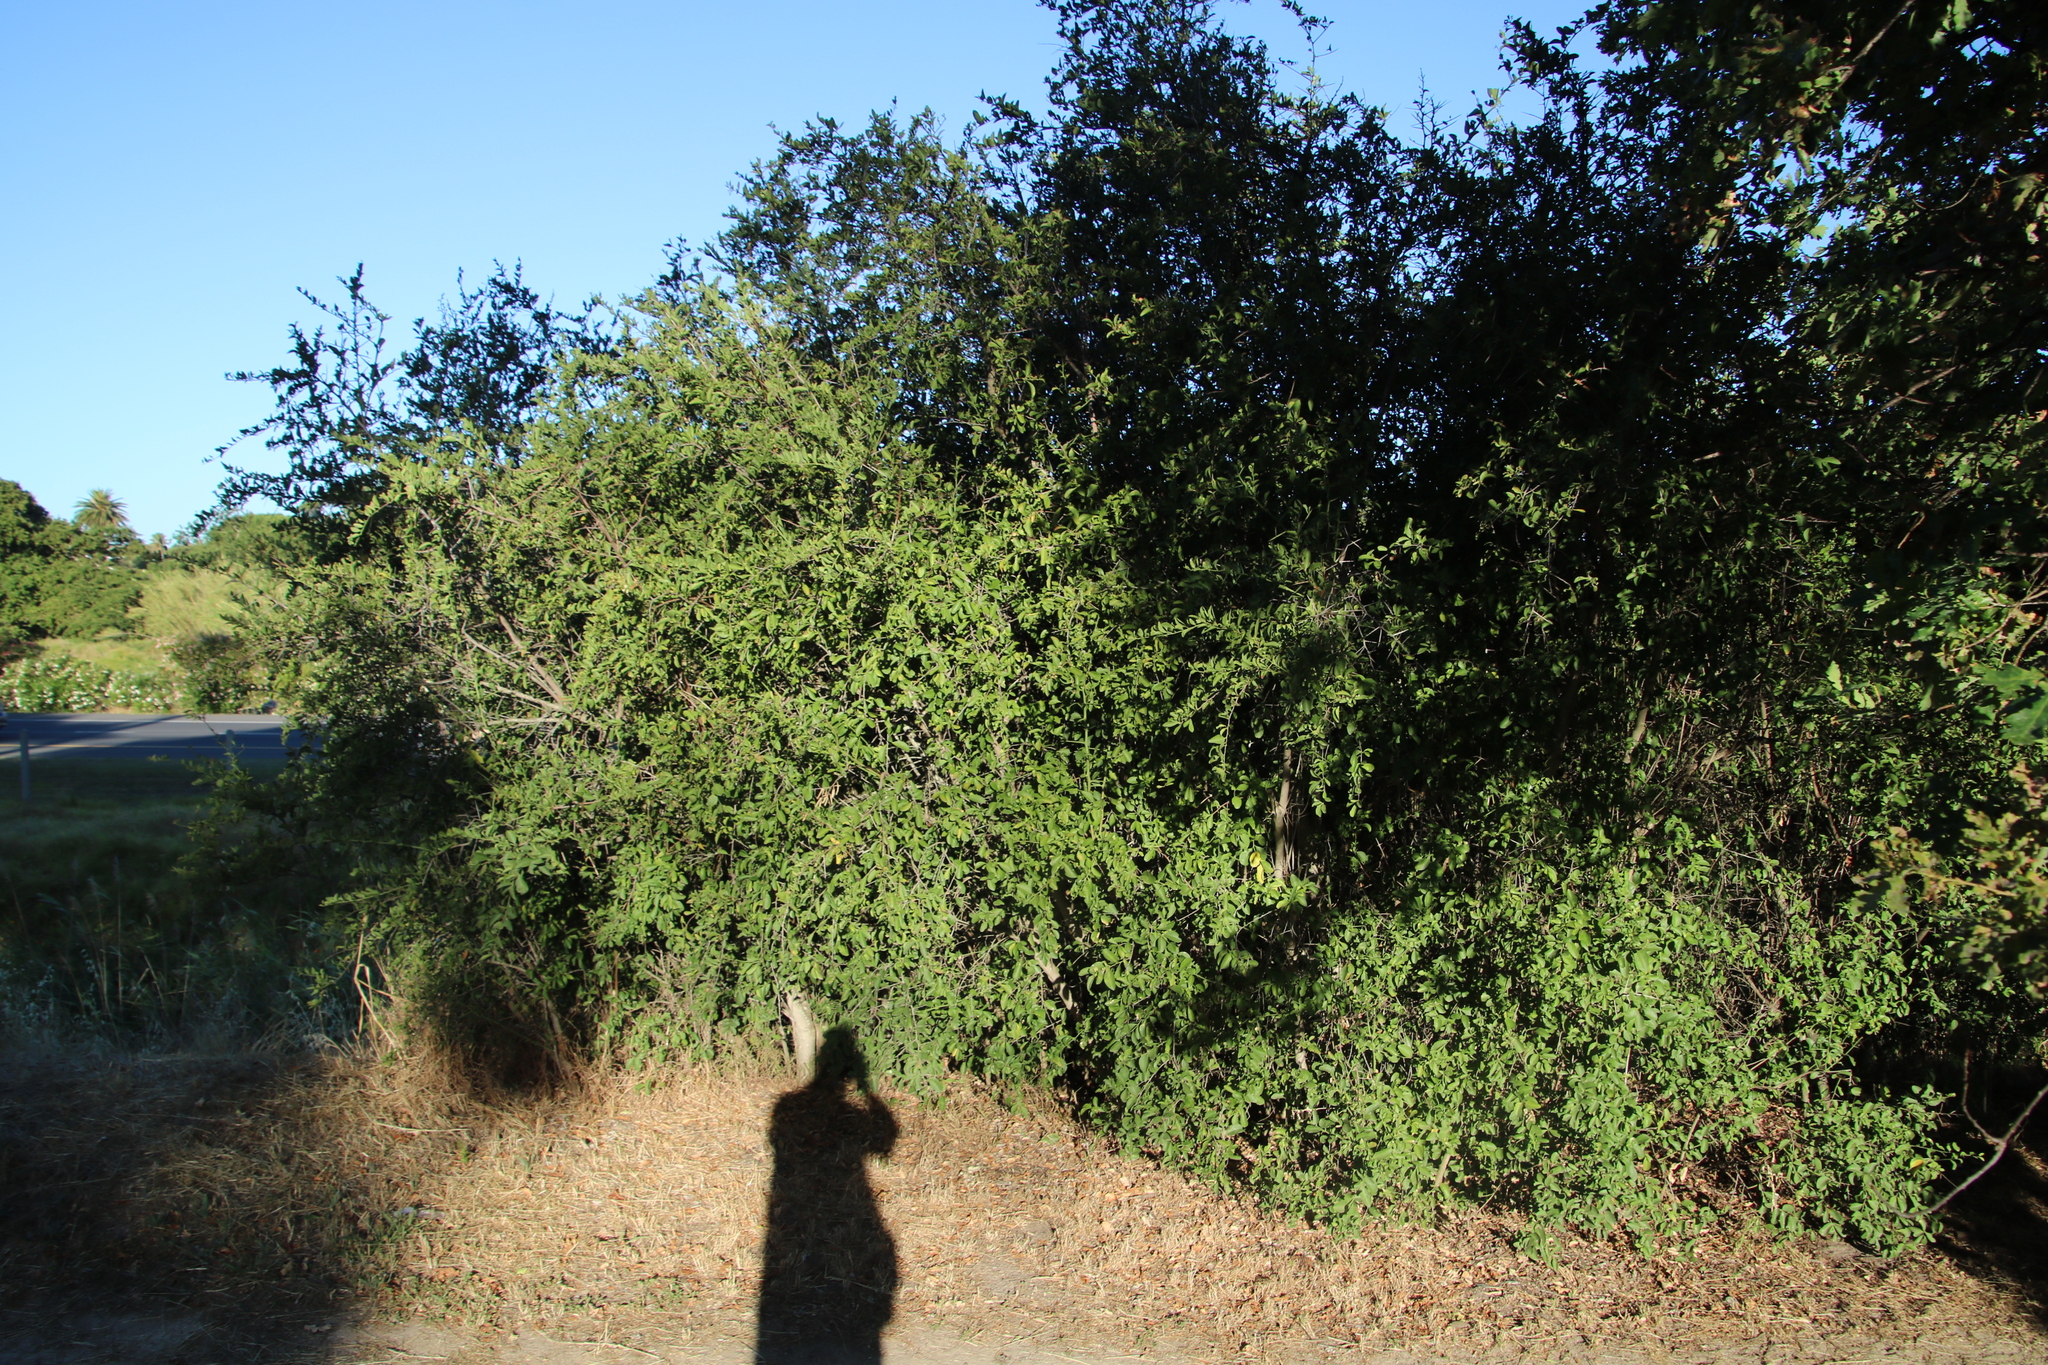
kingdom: Plantae
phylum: Tracheophyta
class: Magnoliopsida
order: Celastrales
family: Celastraceae
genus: Gymnosporia
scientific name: Gymnosporia buxifolia
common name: Common spike-thorn
